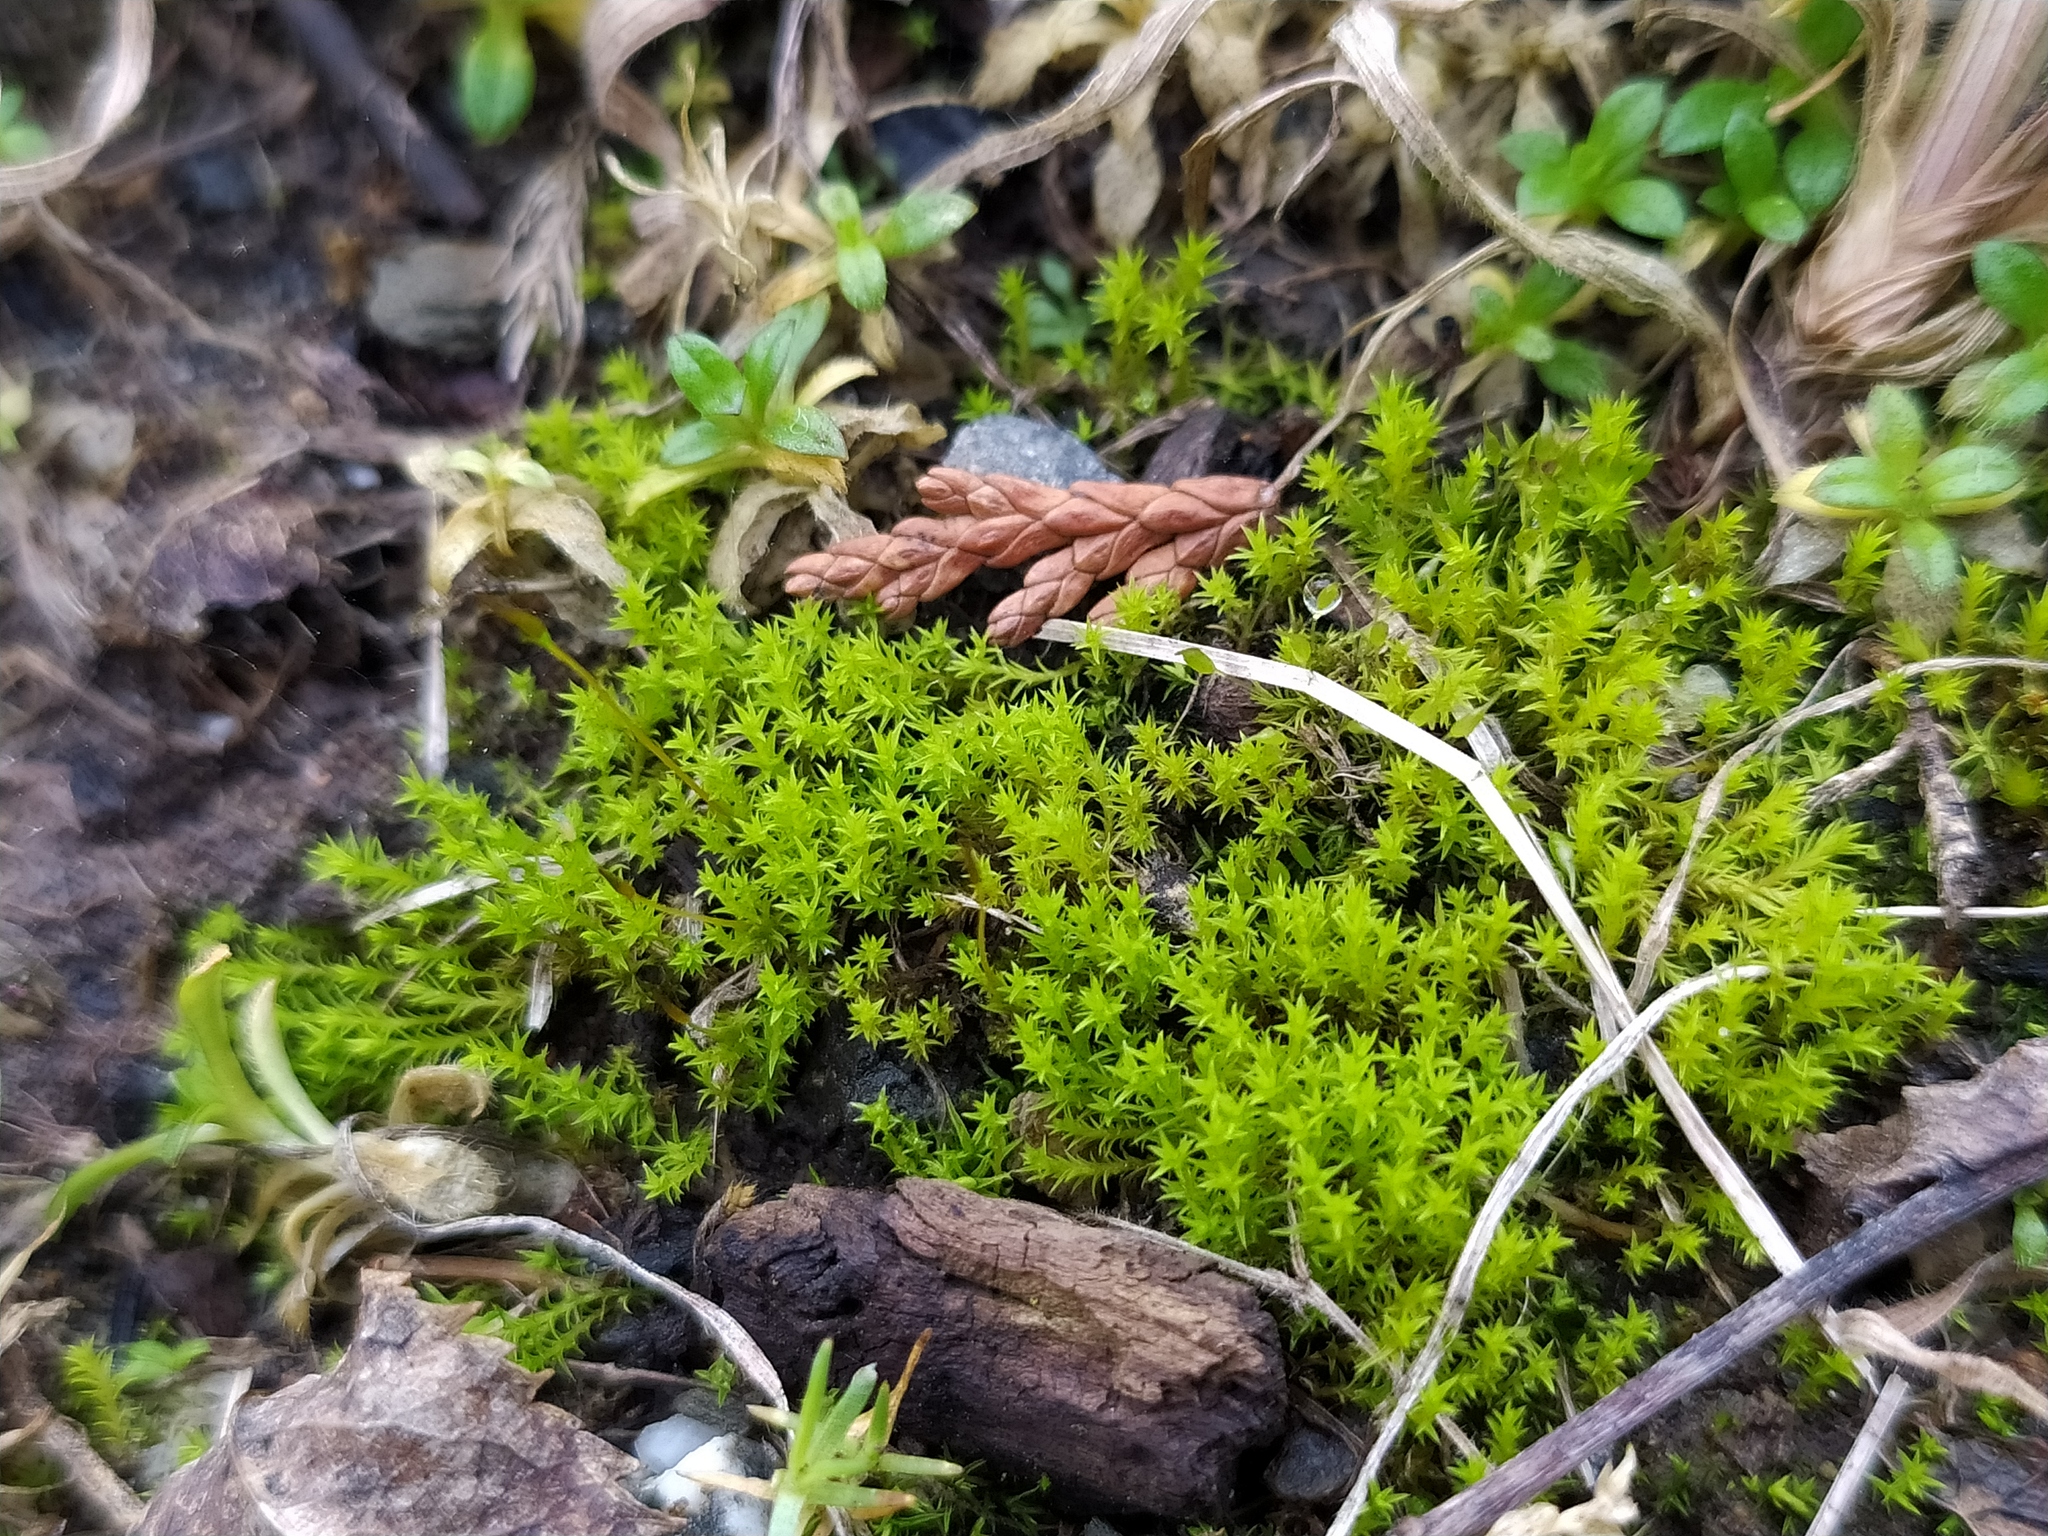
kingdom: Plantae
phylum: Bryophyta
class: Bryopsida
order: Pottiales
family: Pottiaceae
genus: Pseudocrossidium
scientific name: Pseudocrossidium hornschuchianum
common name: Hornschuch's beard-moss
